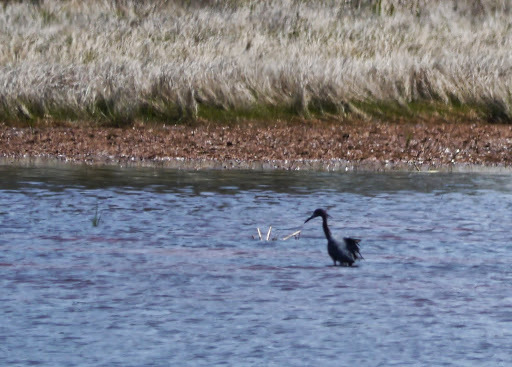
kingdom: Animalia
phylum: Chordata
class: Aves
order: Pelecaniformes
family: Ardeidae
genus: Egretta
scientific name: Egretta caerulea
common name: Little blue heron
